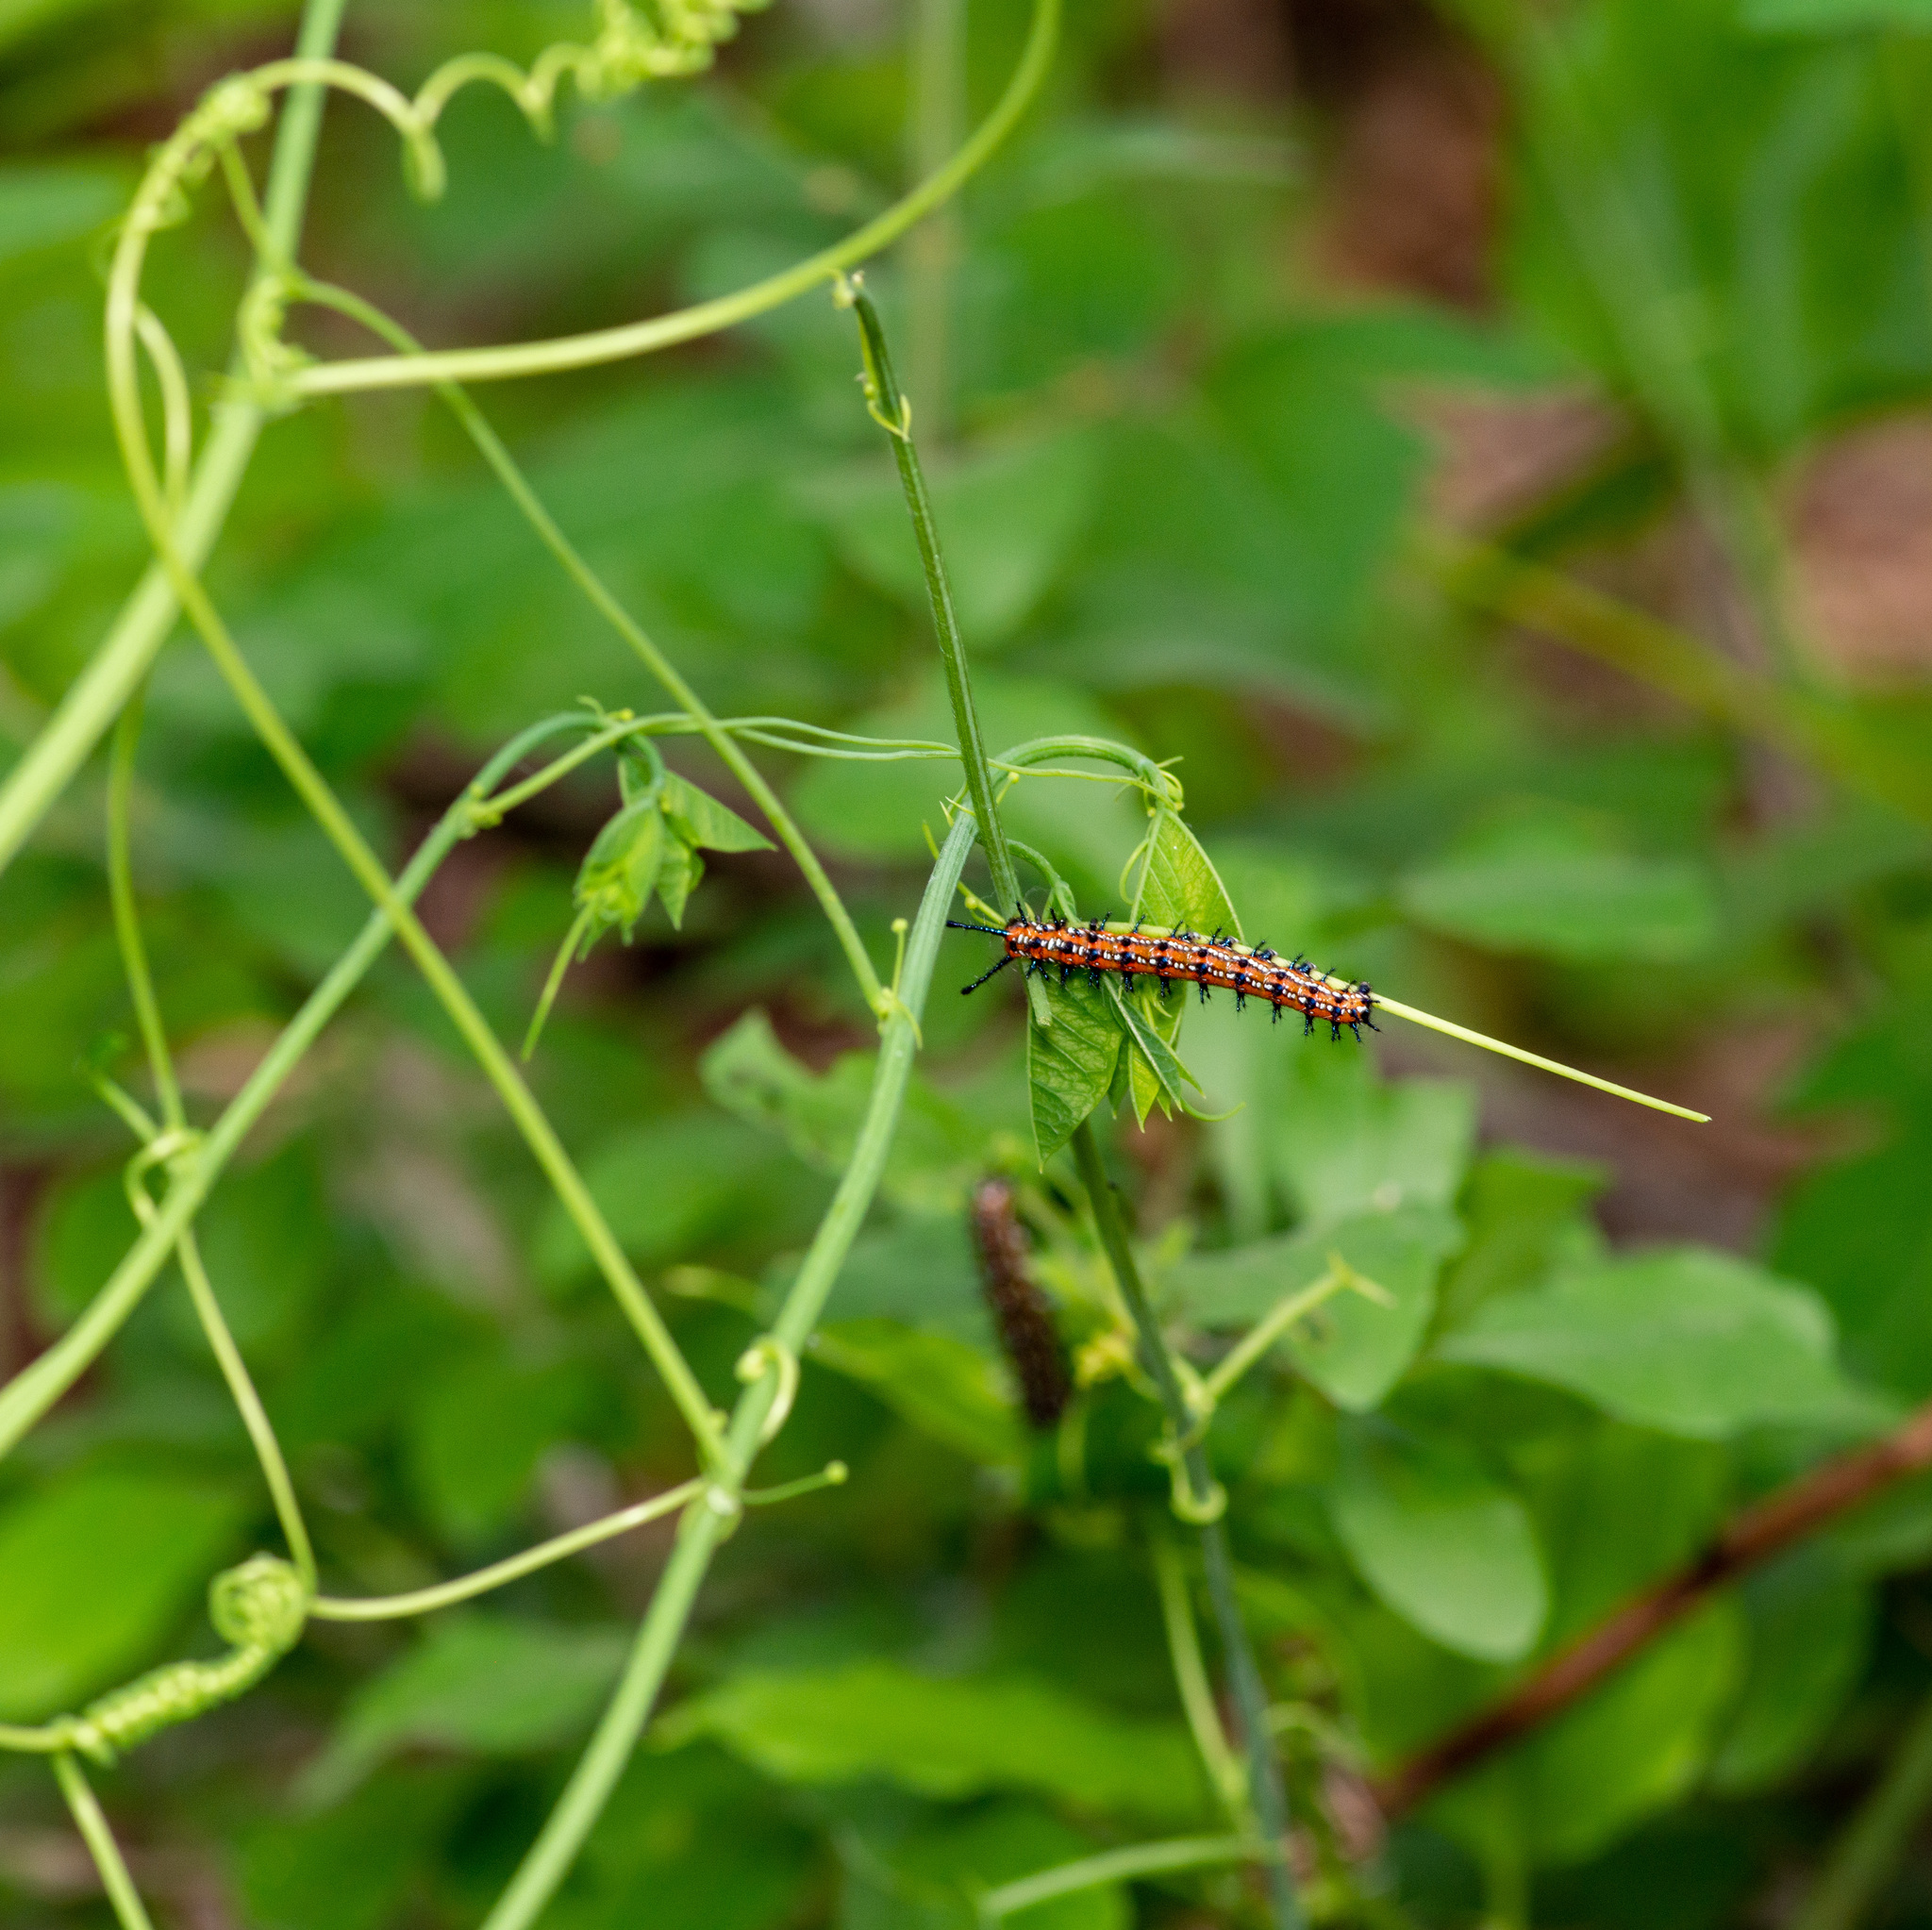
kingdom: Animalia
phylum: Arthropoda
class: Insecta
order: Lepidoptera
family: Nymphalidae
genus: Euptoieta
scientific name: Euptoieta claudia
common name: Variegated fritillary
